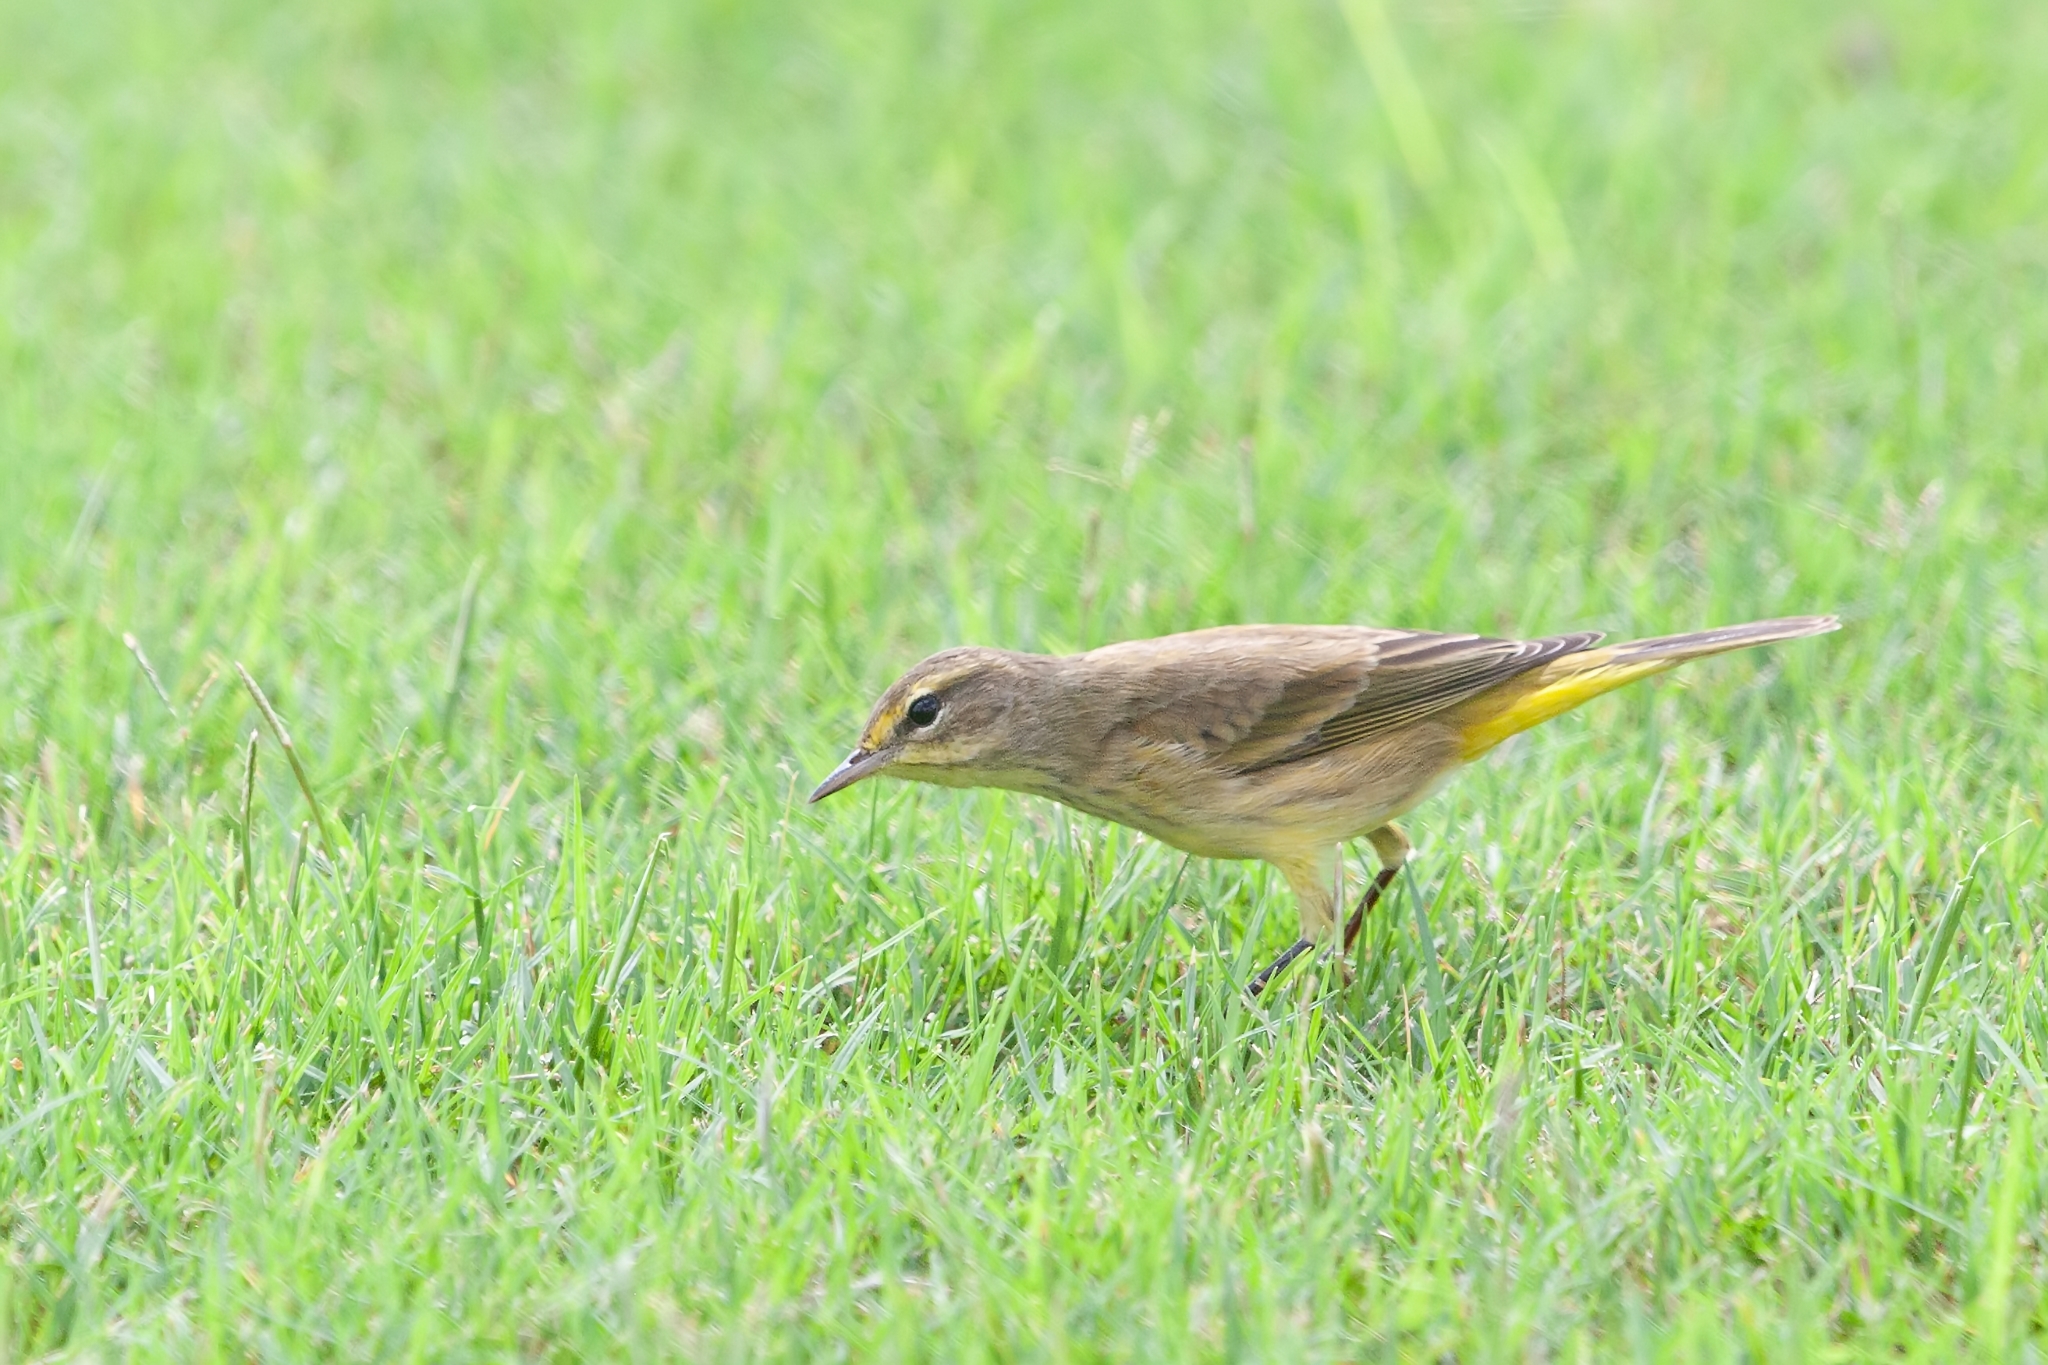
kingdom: Animalia
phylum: Chordata
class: Aves
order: Passeriformes
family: Parulidae
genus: Setophaga
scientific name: Setophaga pinus
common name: Pine warbler
